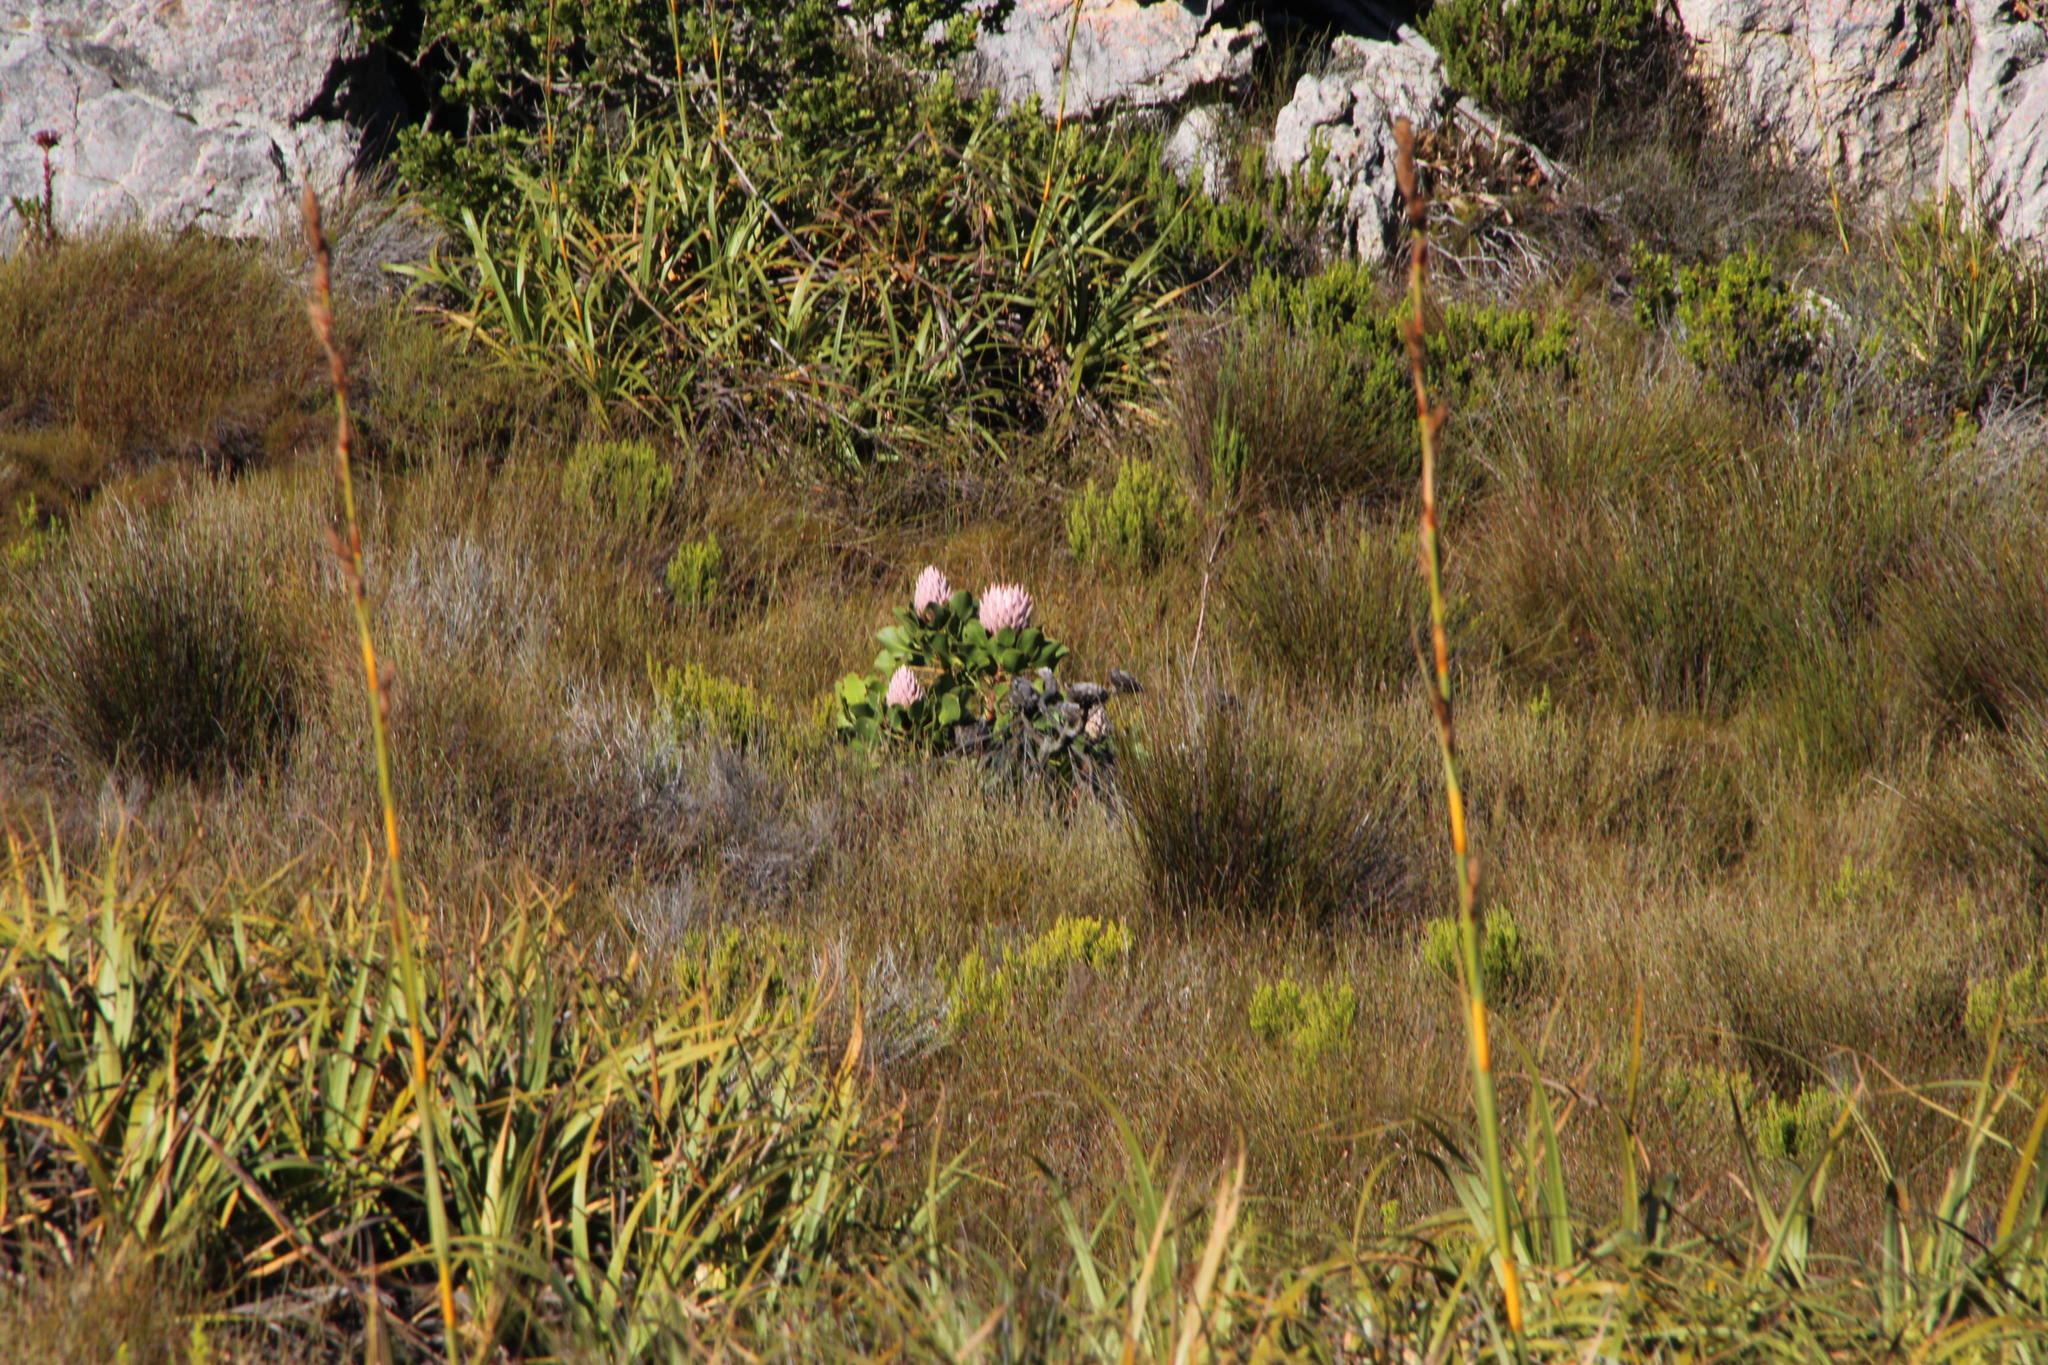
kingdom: Plantae
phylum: Tracheophyta
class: Magnoliopsida
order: Proteales
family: Proteaceae
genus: Protea
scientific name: Protea cynaroides
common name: King protea
